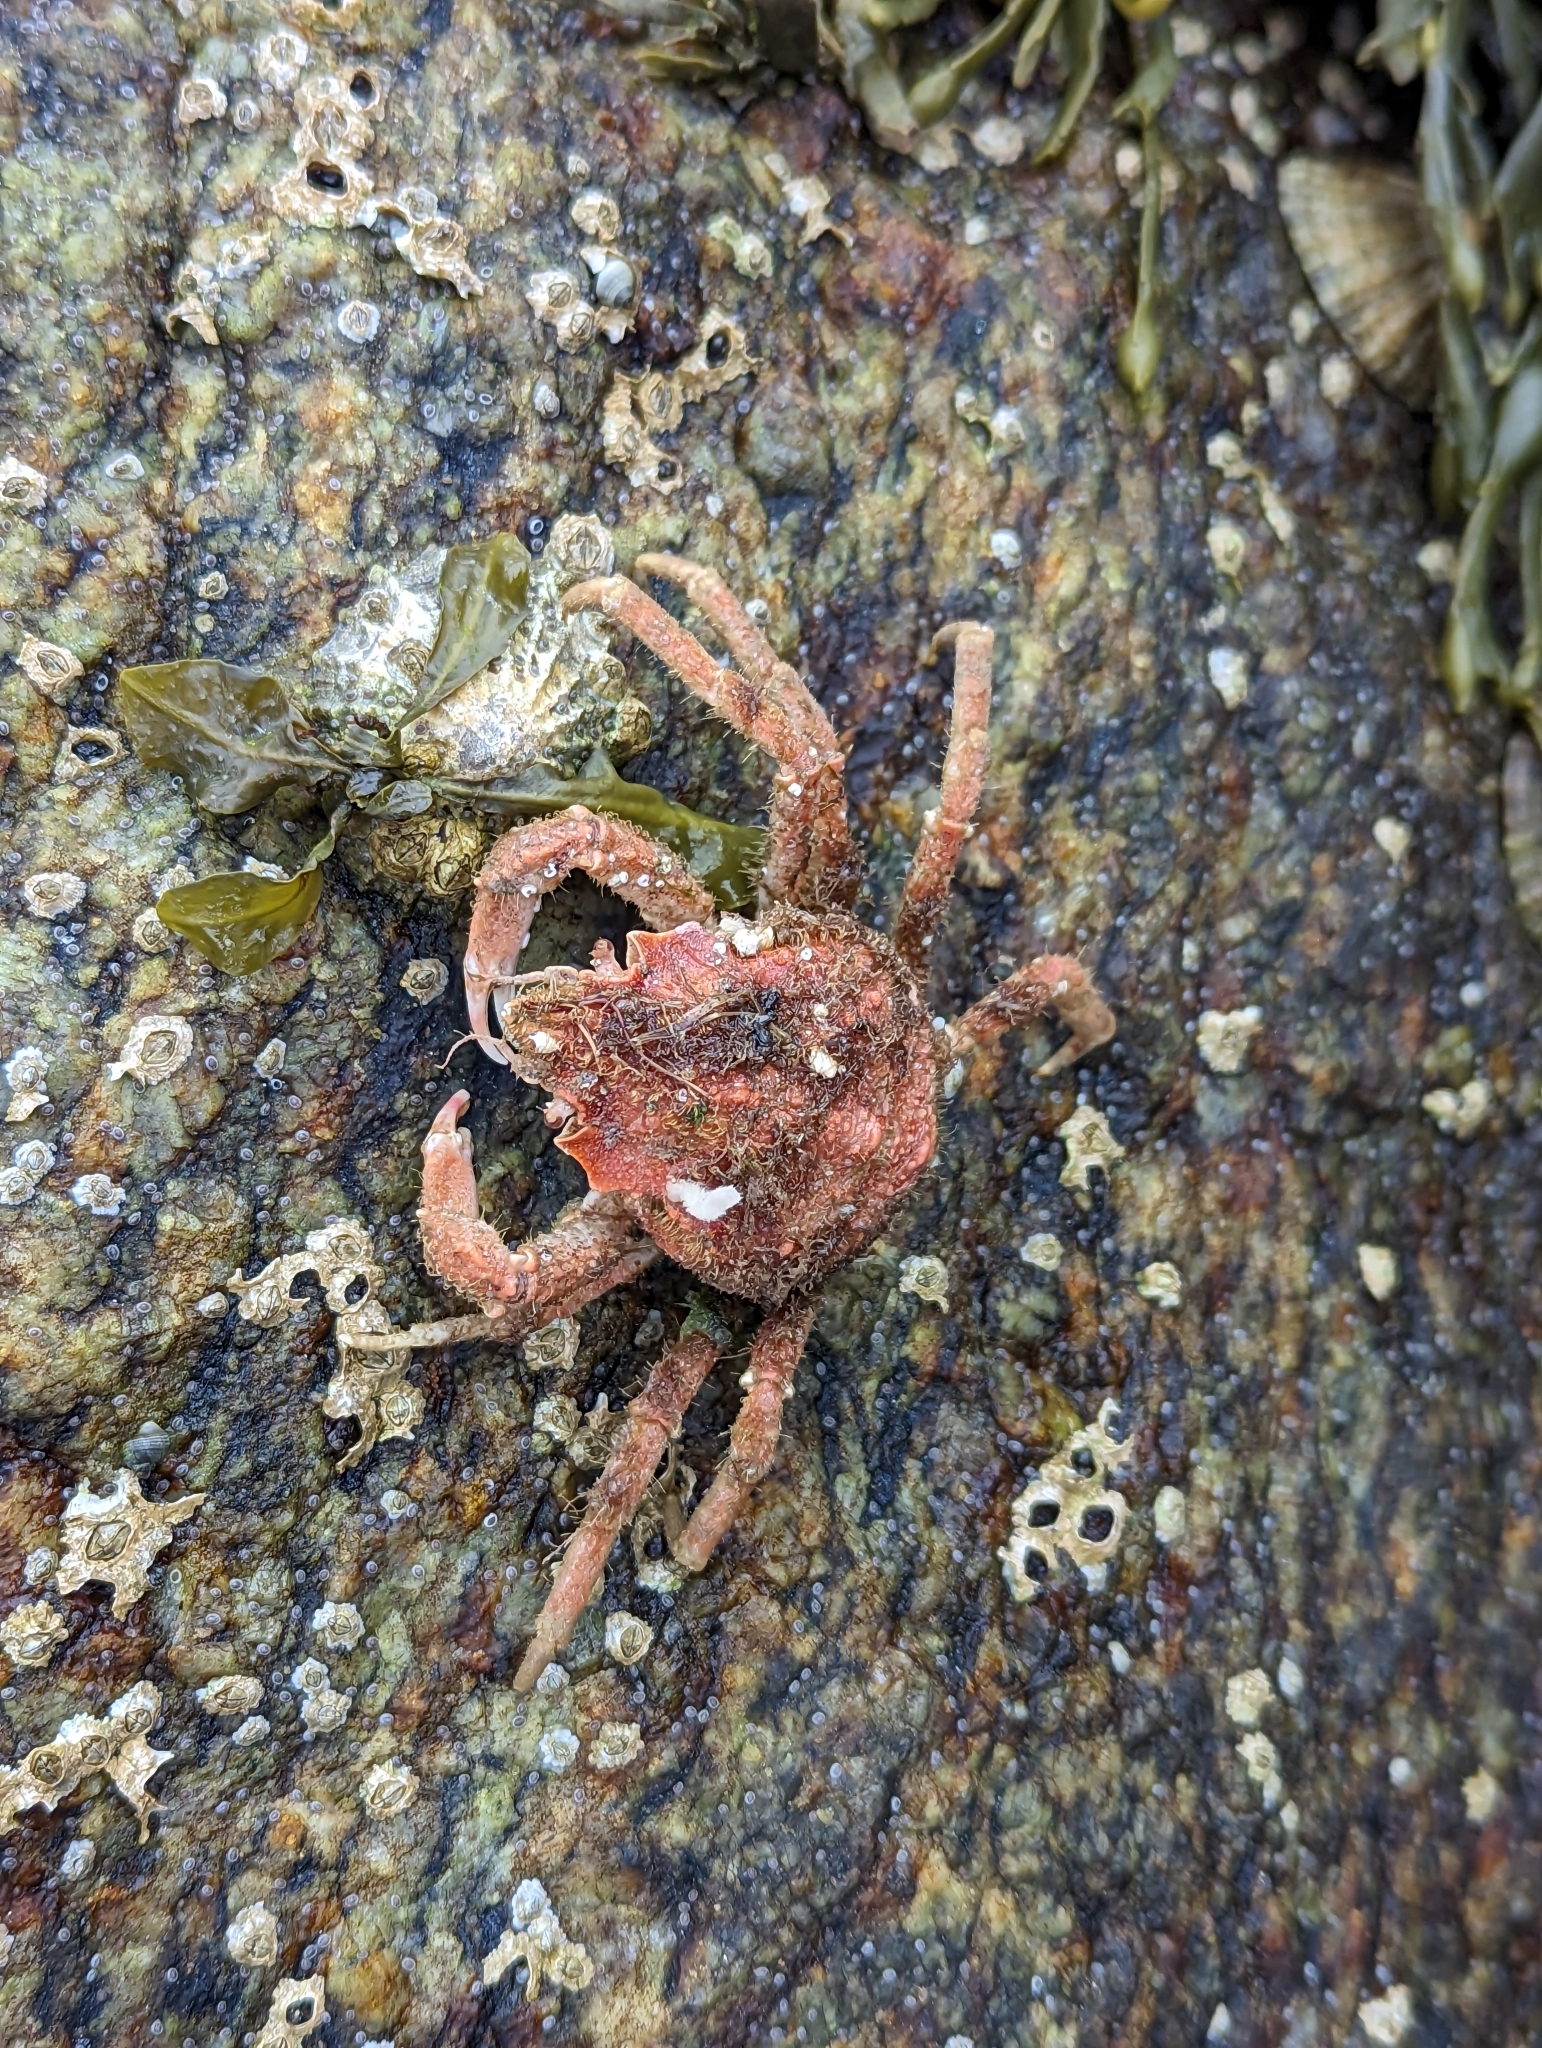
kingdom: Animalia
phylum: Arthropoda
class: Malacostraca
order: Decapoda
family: Oregoniidae
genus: Hyas
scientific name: Hyas araneus
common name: Great spider crab
